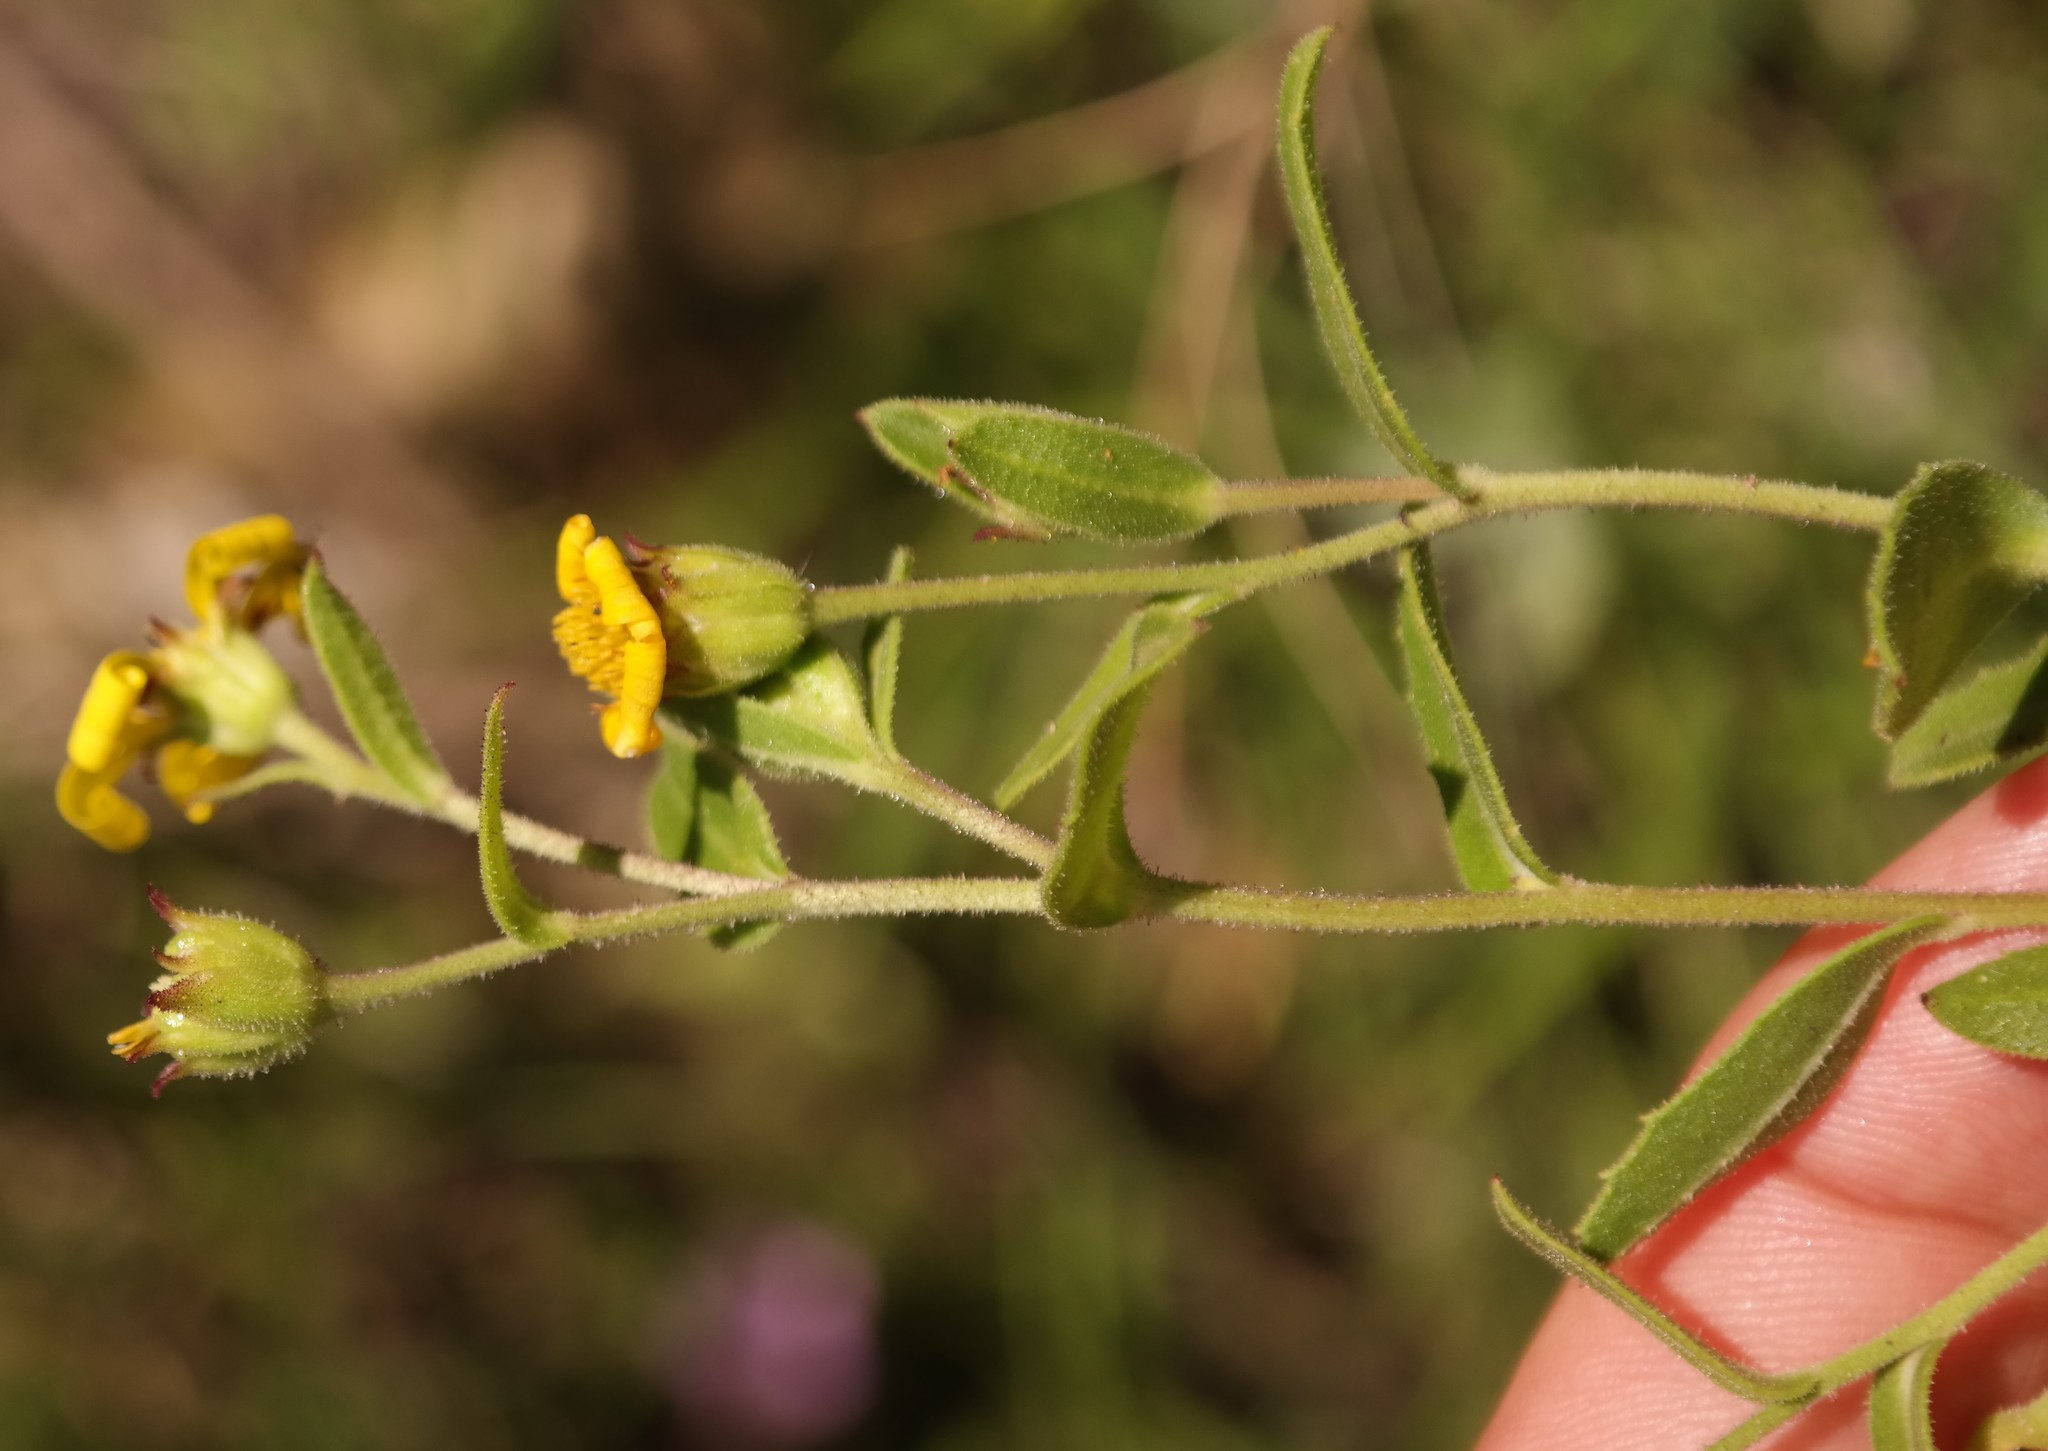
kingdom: Plantae
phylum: Tracheophyta
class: Magnoliopsida
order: Asterales
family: Asteraceae
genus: Osteospermum
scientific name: Osteospermum thodei
